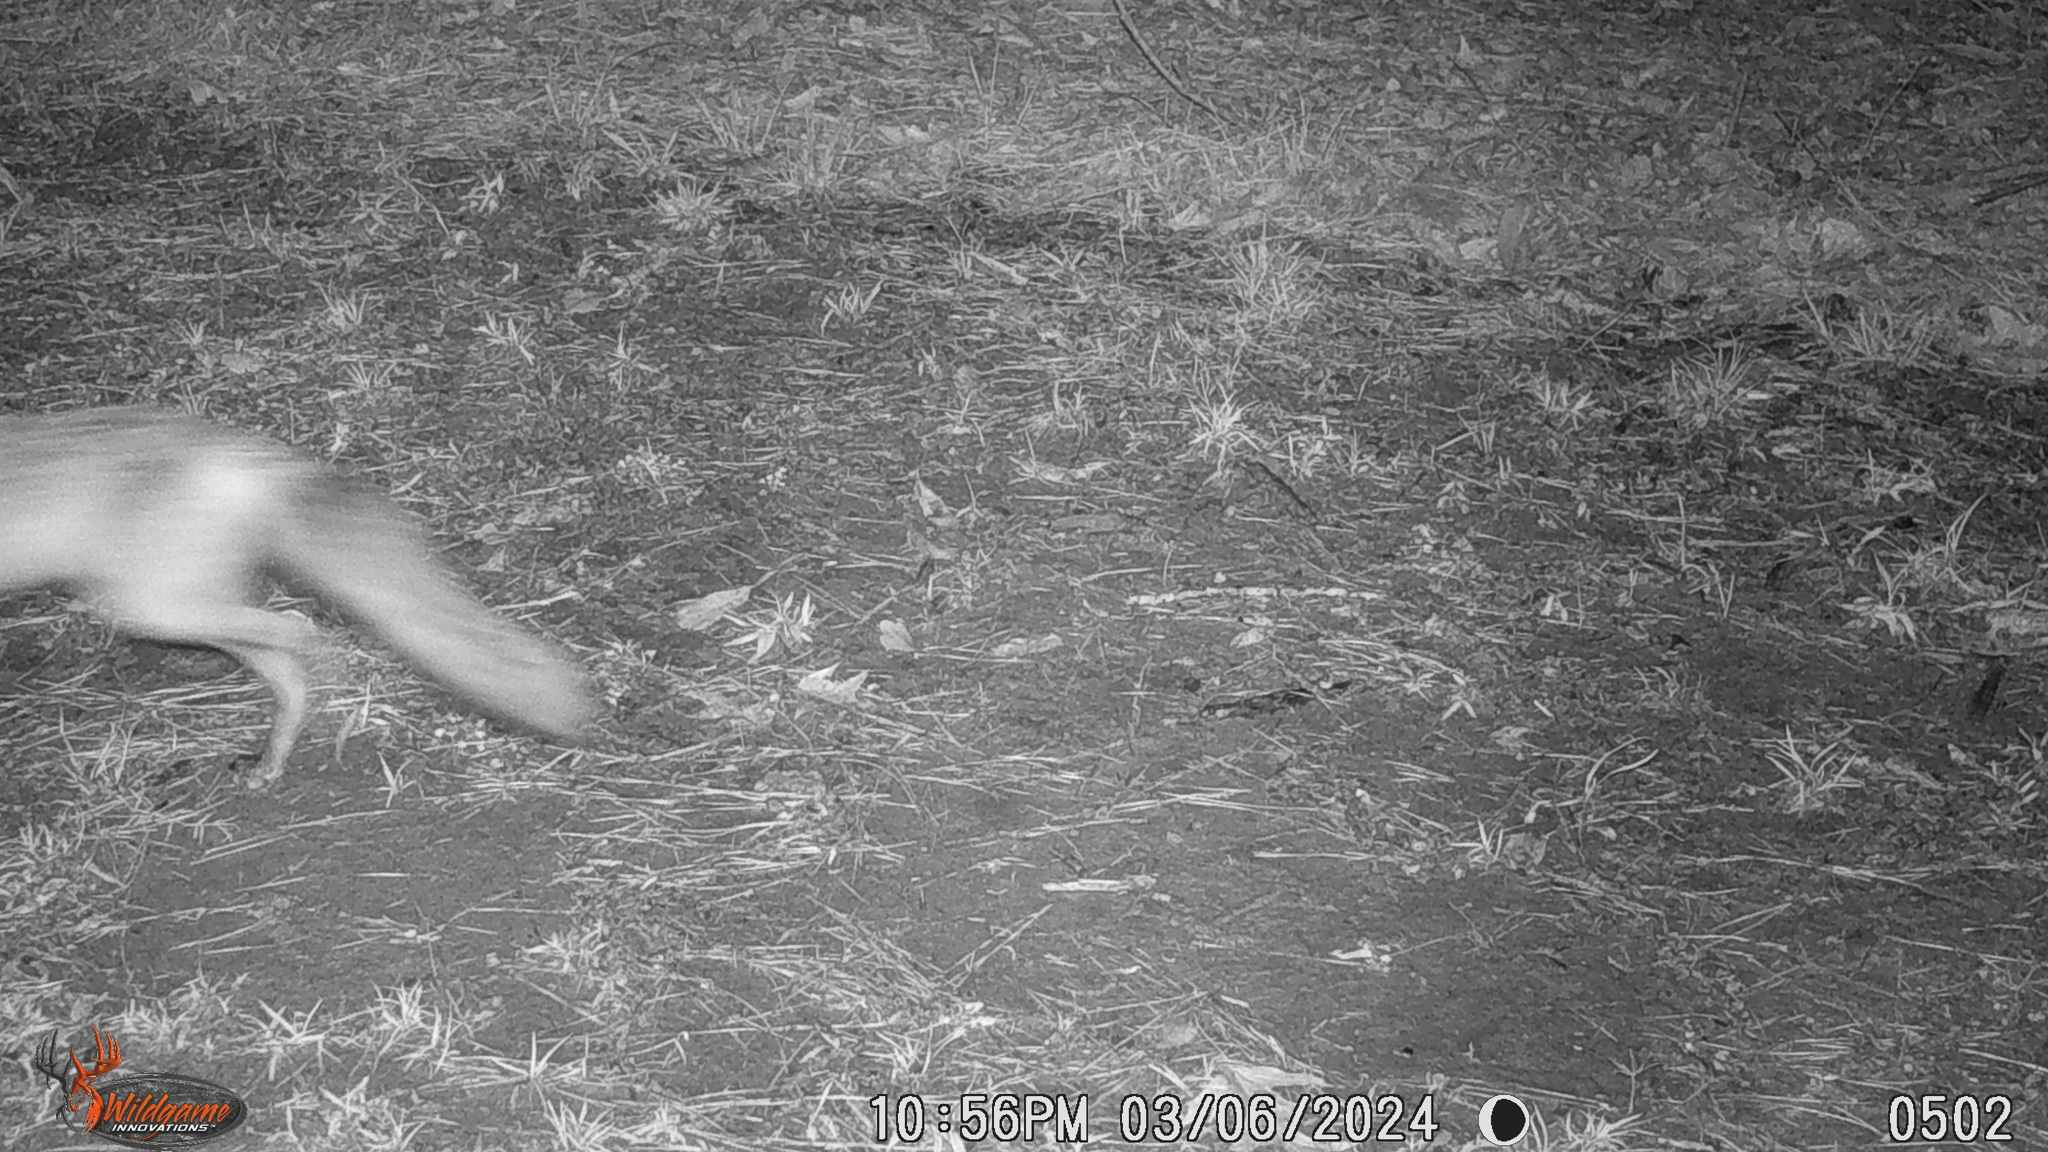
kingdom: Animalia
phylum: Chordata
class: Mammalia
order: Carnivora
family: Canidae
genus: Canis
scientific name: Canis latrans
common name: Coyote
